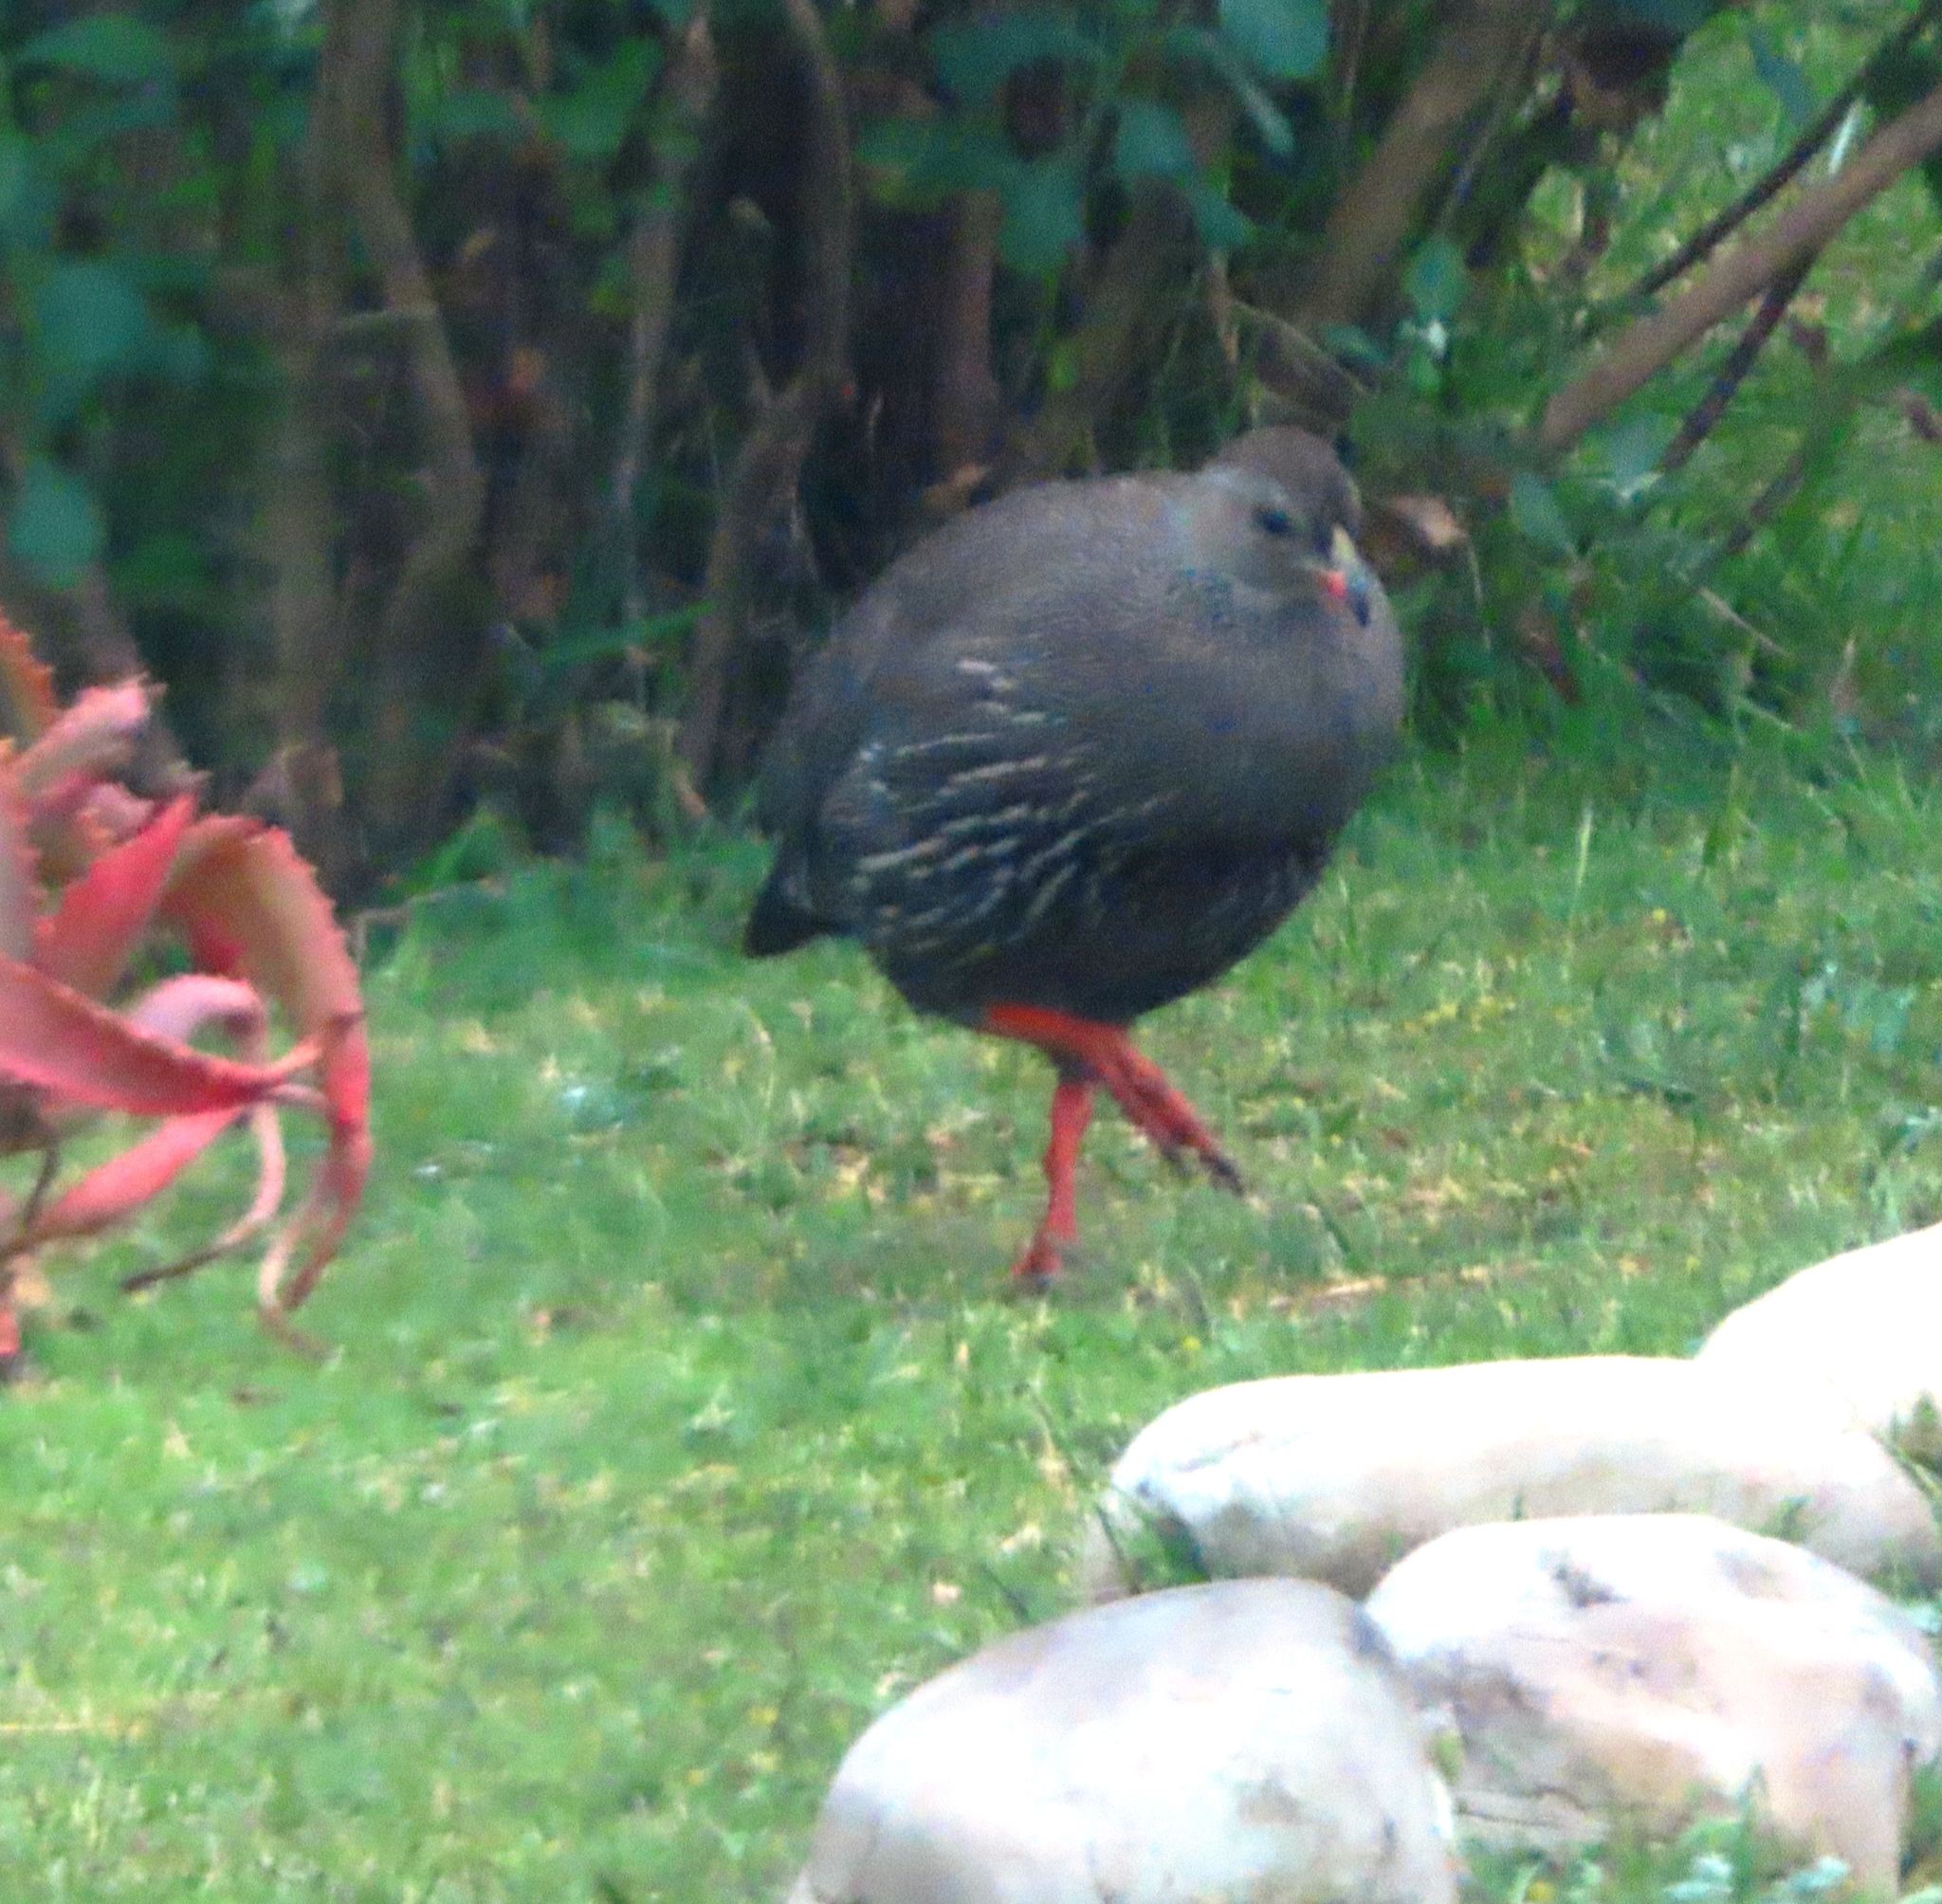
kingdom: Animalia
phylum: Chordata
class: Aves
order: Galliformes
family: Phasianidae
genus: Pternistis
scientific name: Pternistis capensis
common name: Cape spurfowl
